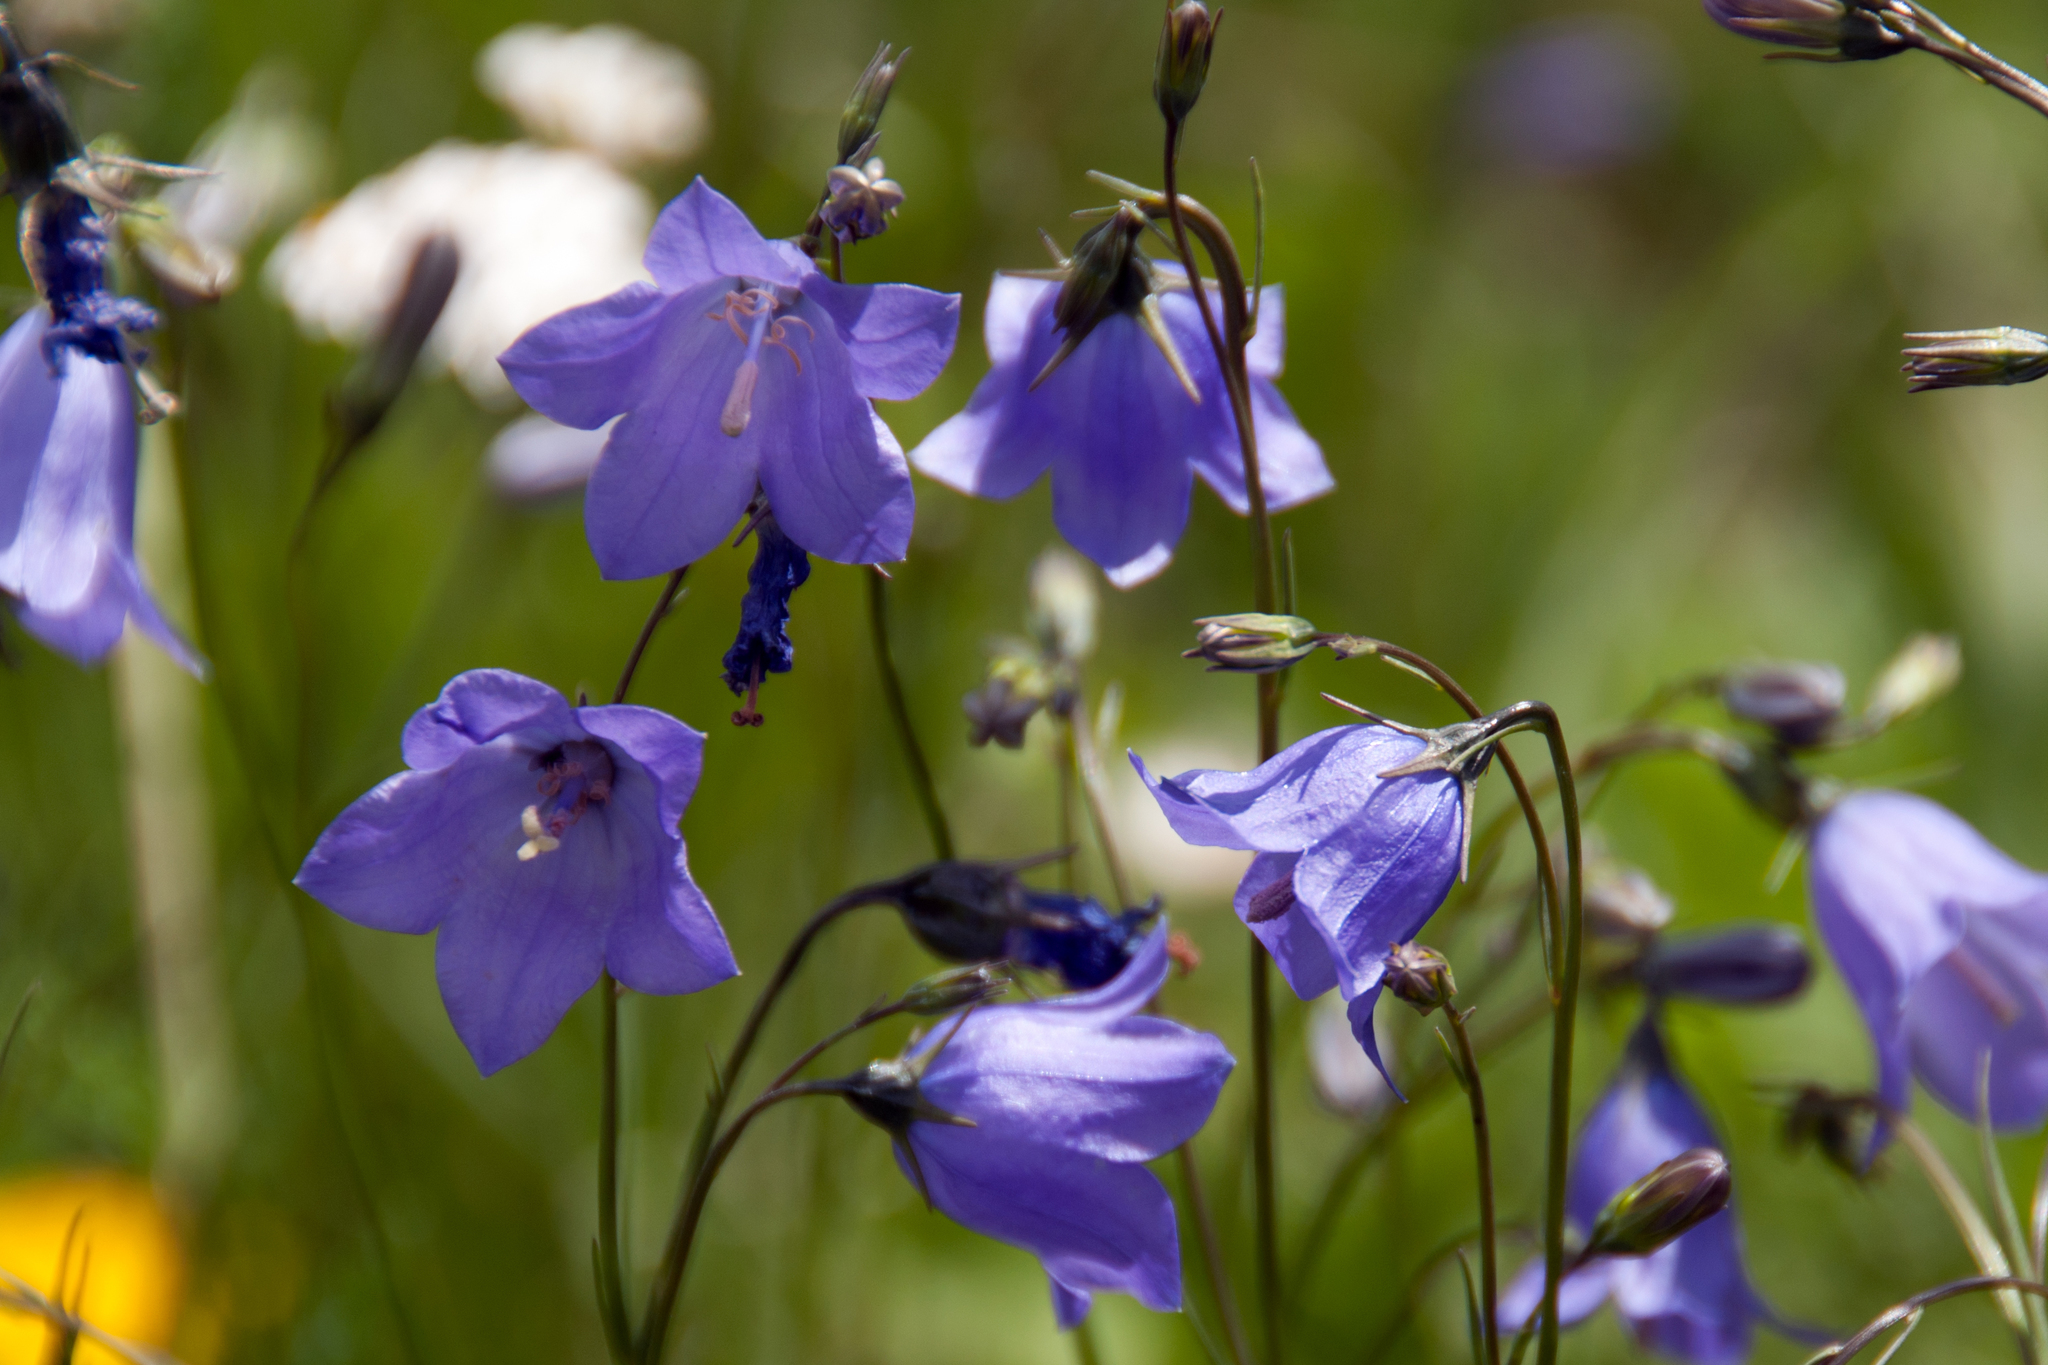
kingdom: Plantae
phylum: Tracheophyta
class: Magnoliopsida
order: Asterales
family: Campanulaceae
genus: Campanula
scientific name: Campanula petiolata
